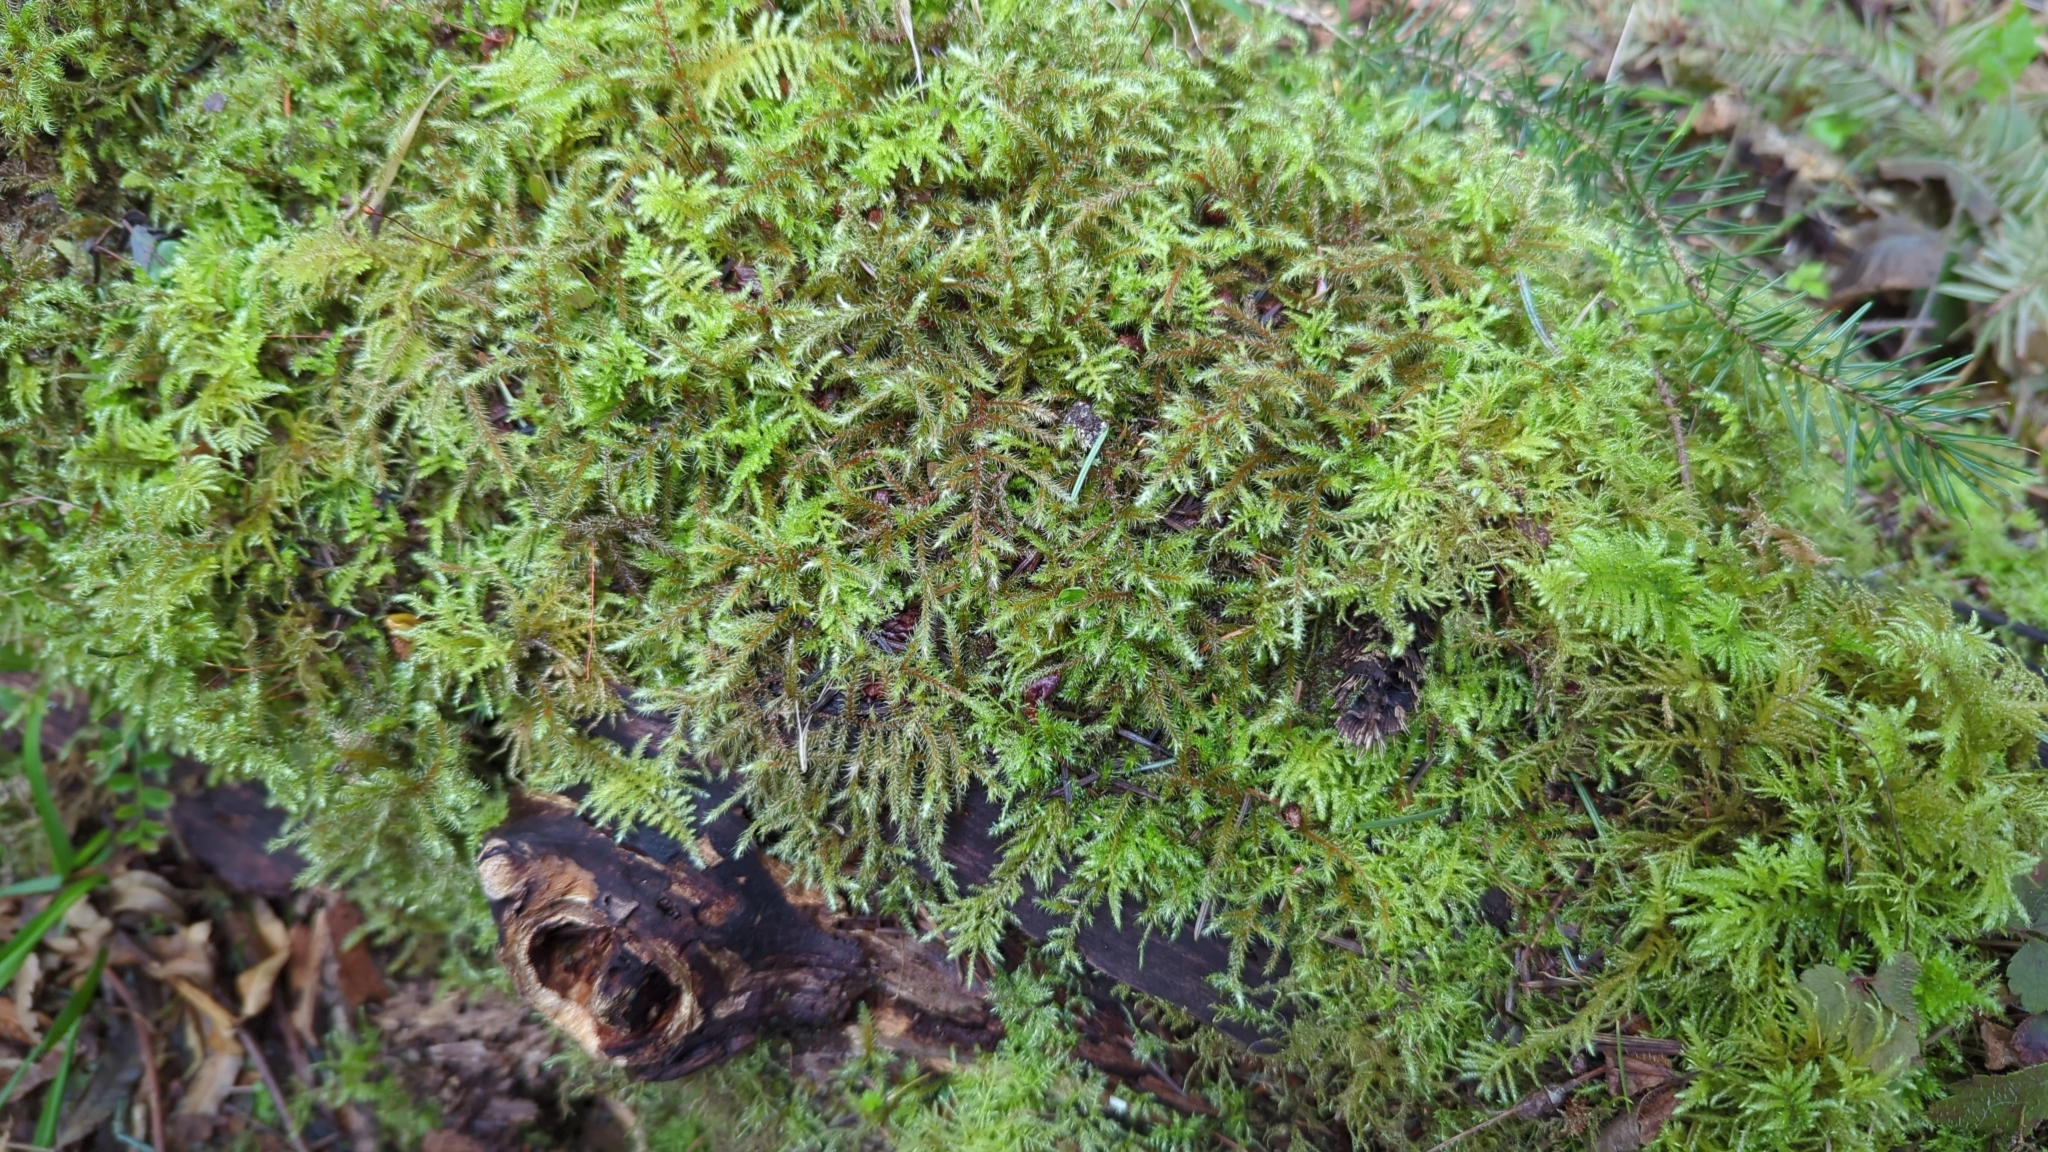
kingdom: Plantae
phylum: Bryophyta
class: Bryopsida
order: Hypnales
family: Hylocomiaceae
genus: Rhytidiadelphus
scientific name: Rhytidiadelphus loreus
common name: Lanky moss
